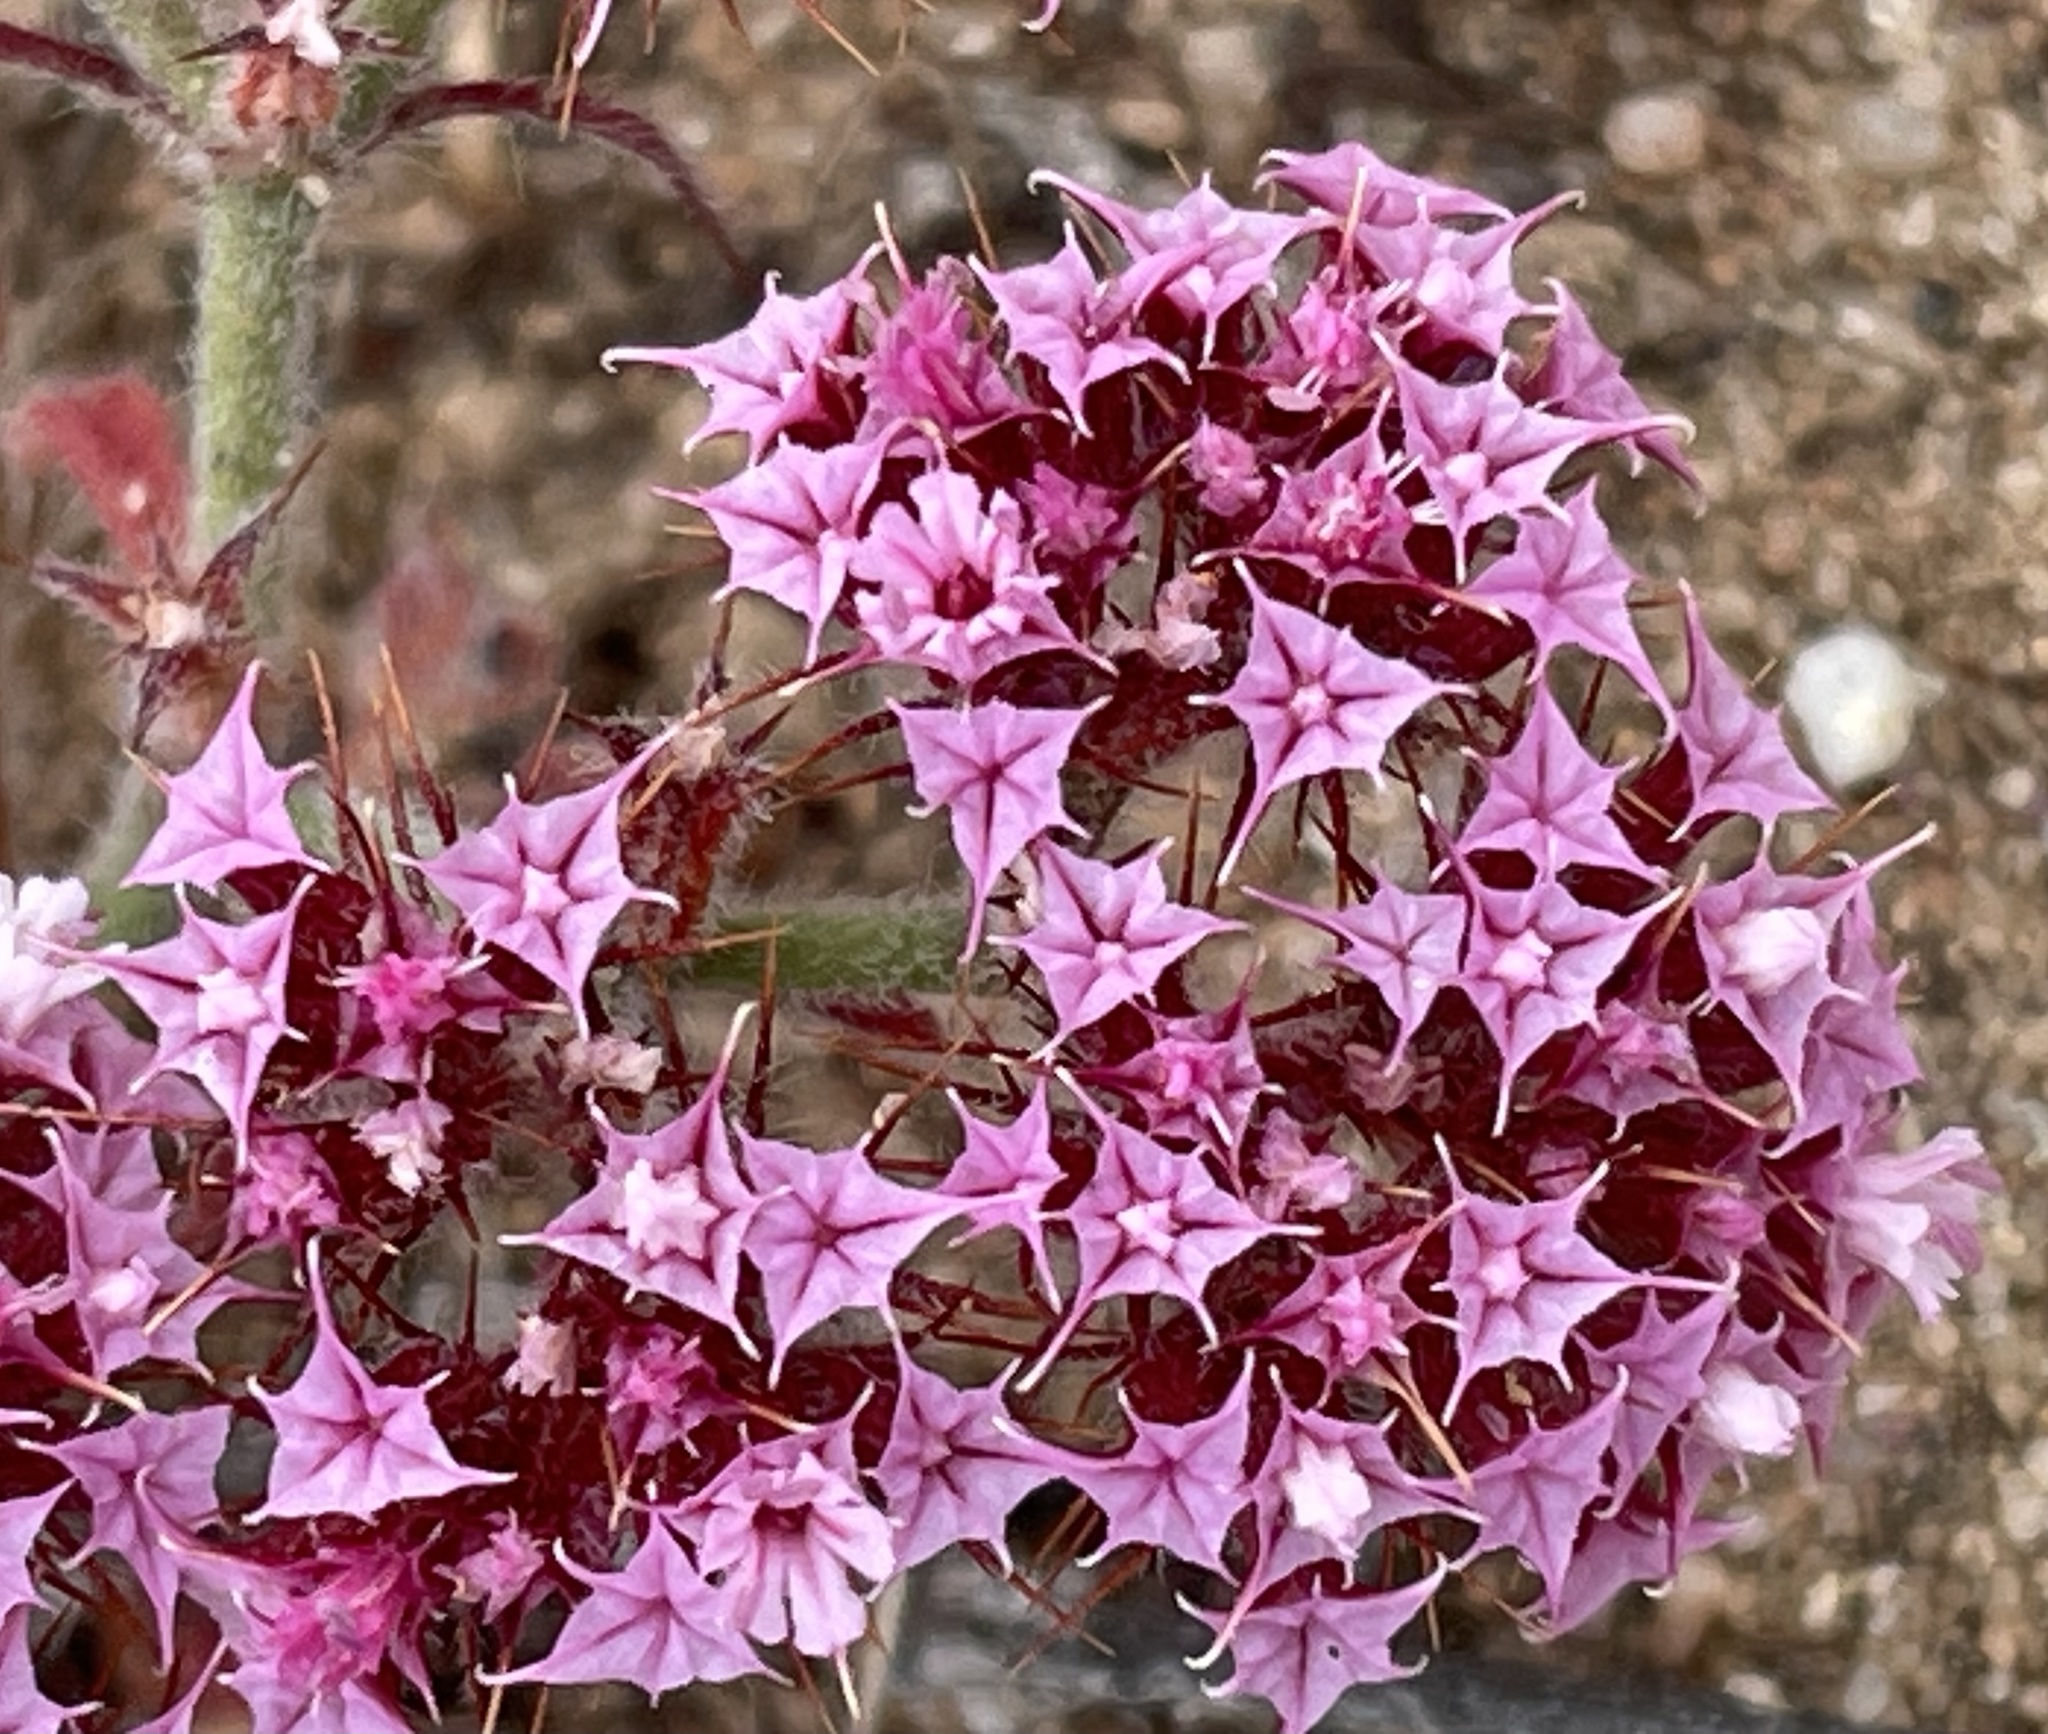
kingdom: Plantae
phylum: Tracheophyta
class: Magnoliopsida
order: Caryophyllales
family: Polygonaceae
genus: Chorizanthe
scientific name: Chorizanthe douglasii
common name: Douglas's spineflower
